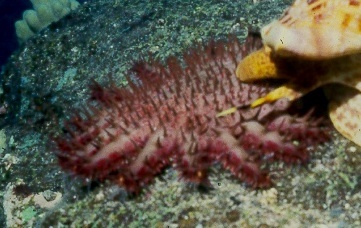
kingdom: Animalia
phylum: Echinodermata
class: Asteroidea
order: Valvatida
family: Acanthasteridae
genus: Acanthaster
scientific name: Acanthaster planci
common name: Crown-of-thorns
